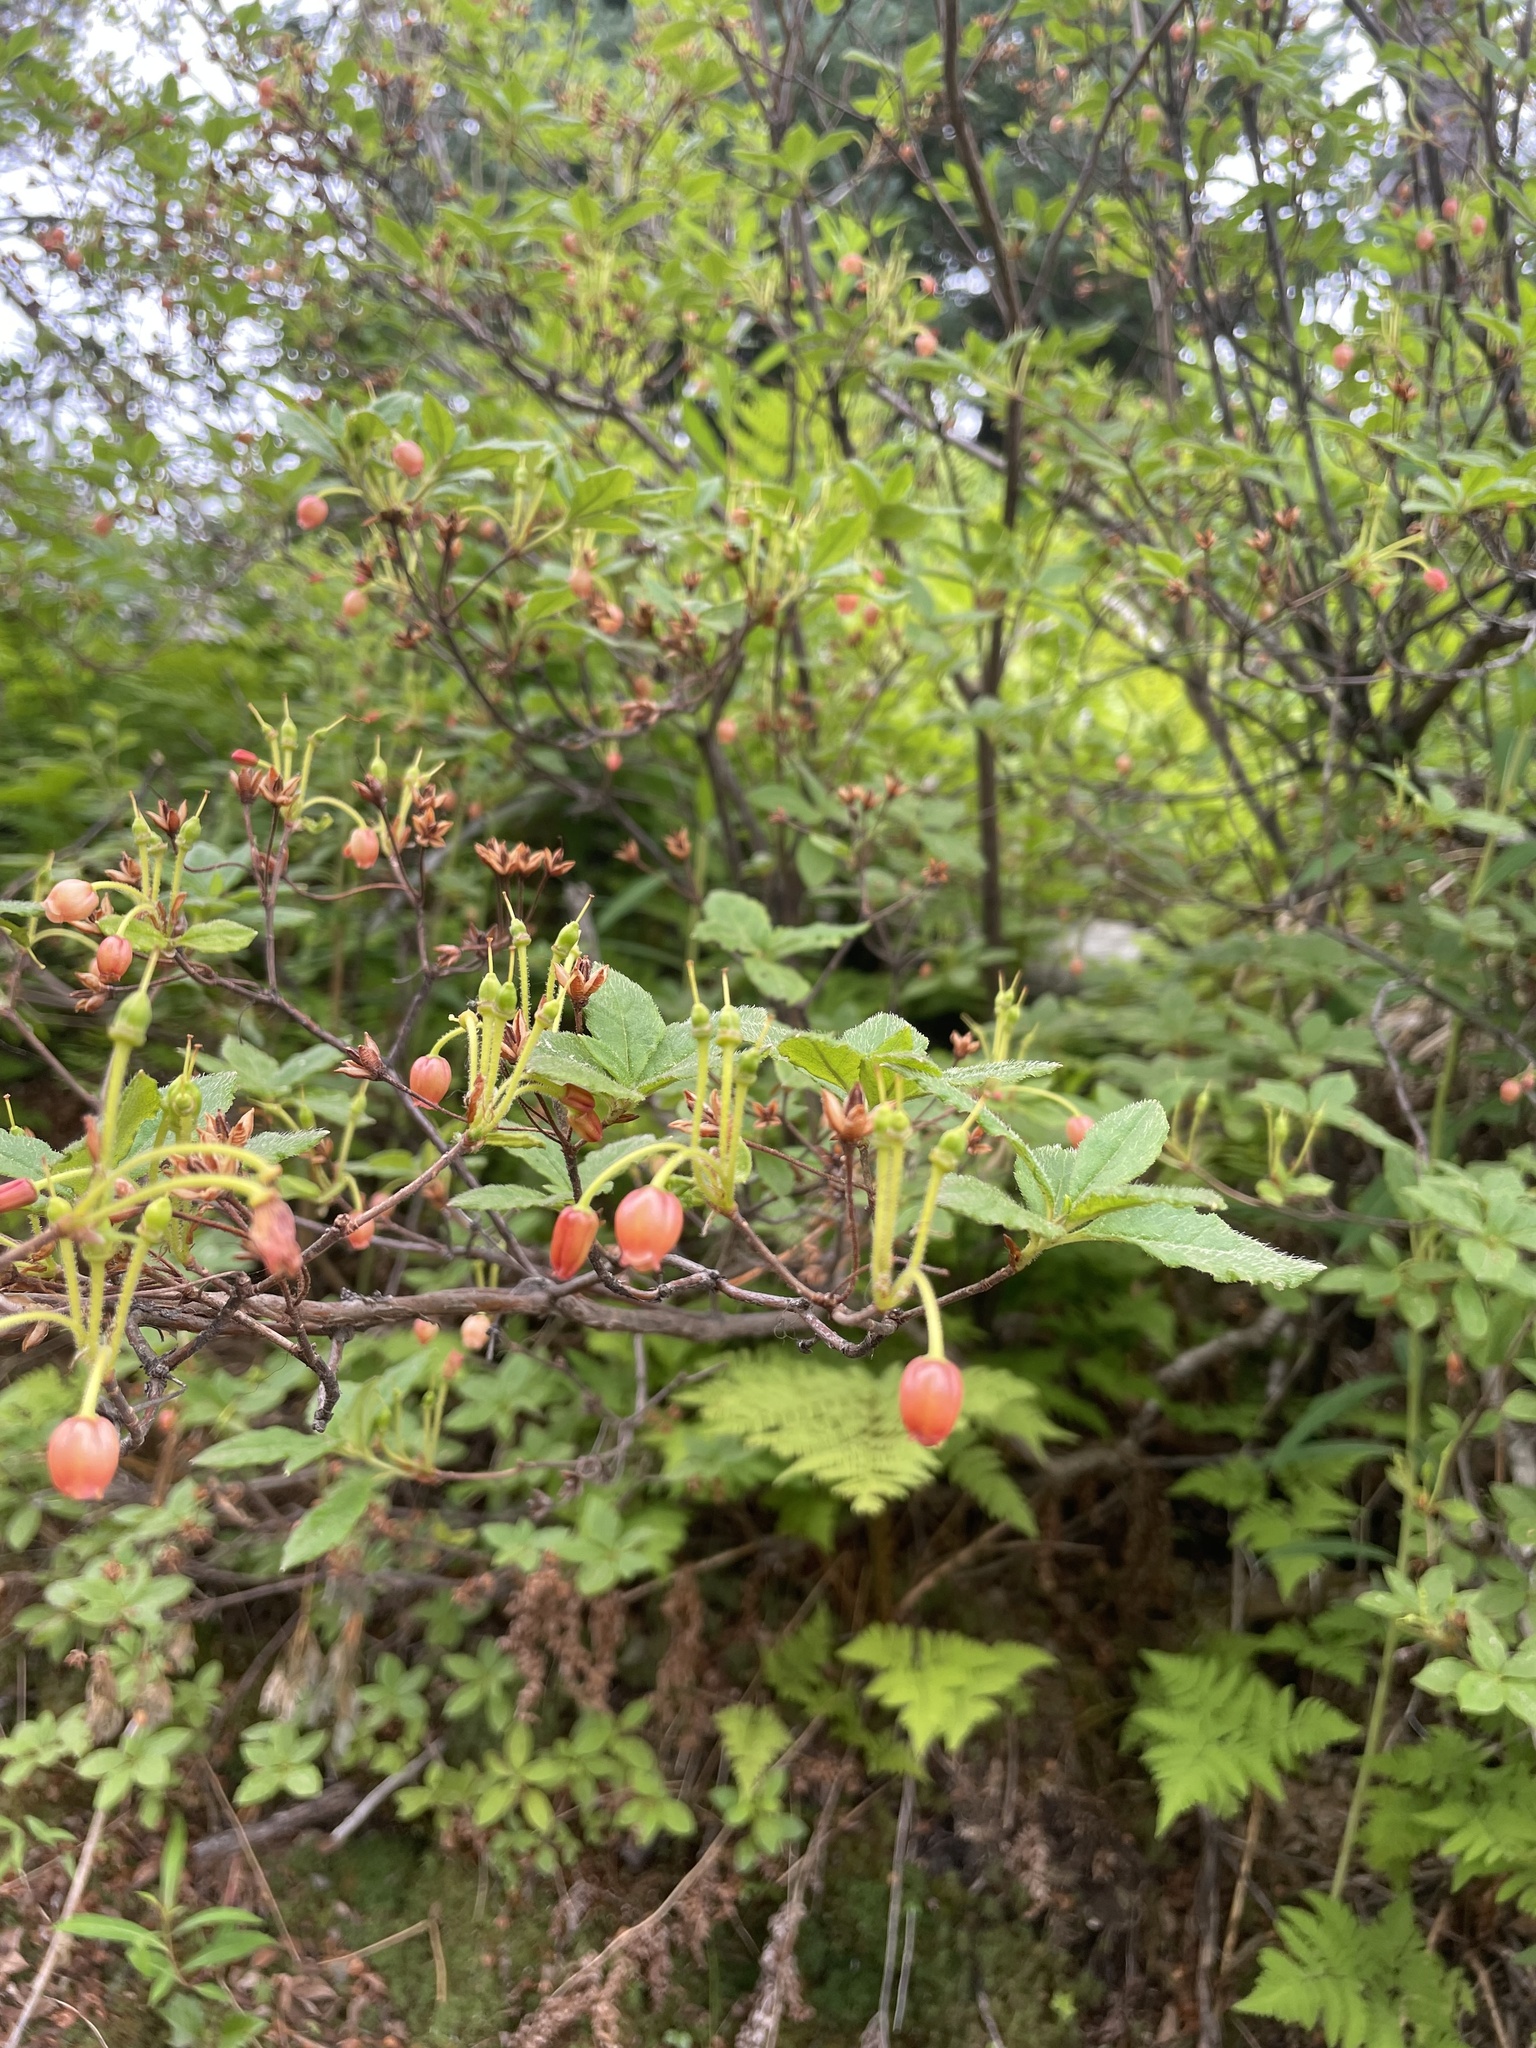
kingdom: Plantae
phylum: Tracheophyta
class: Magnoliopsida
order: Ericales
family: Ericaceae
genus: Rhododendron
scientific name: Rhododendron menziesii
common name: Pacific menziesia
